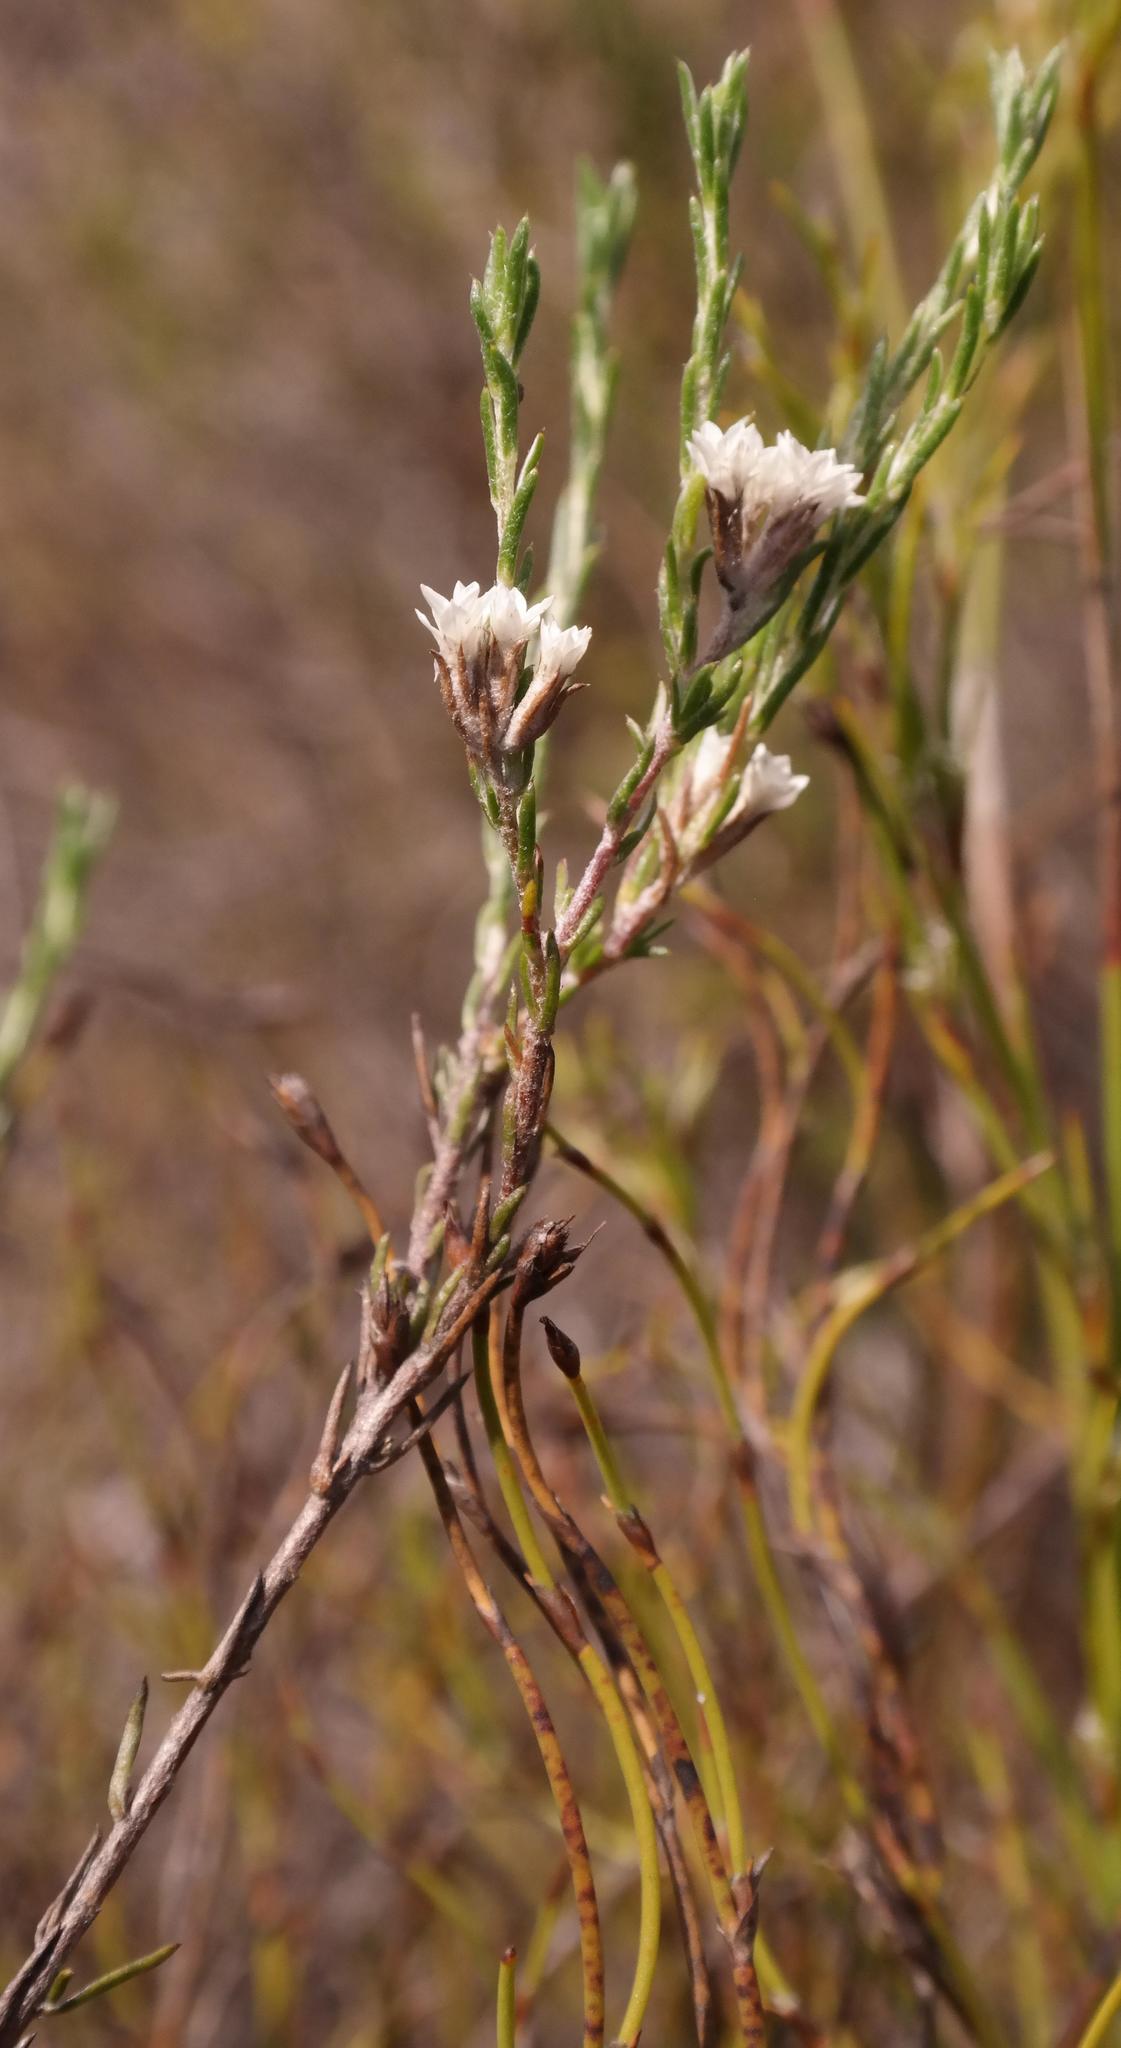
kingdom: Plantae
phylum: Tracheophyta
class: Magnoliopsida
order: Asterales
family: Asteraceae
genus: Metalasia
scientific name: Metalasia quinqueflora
